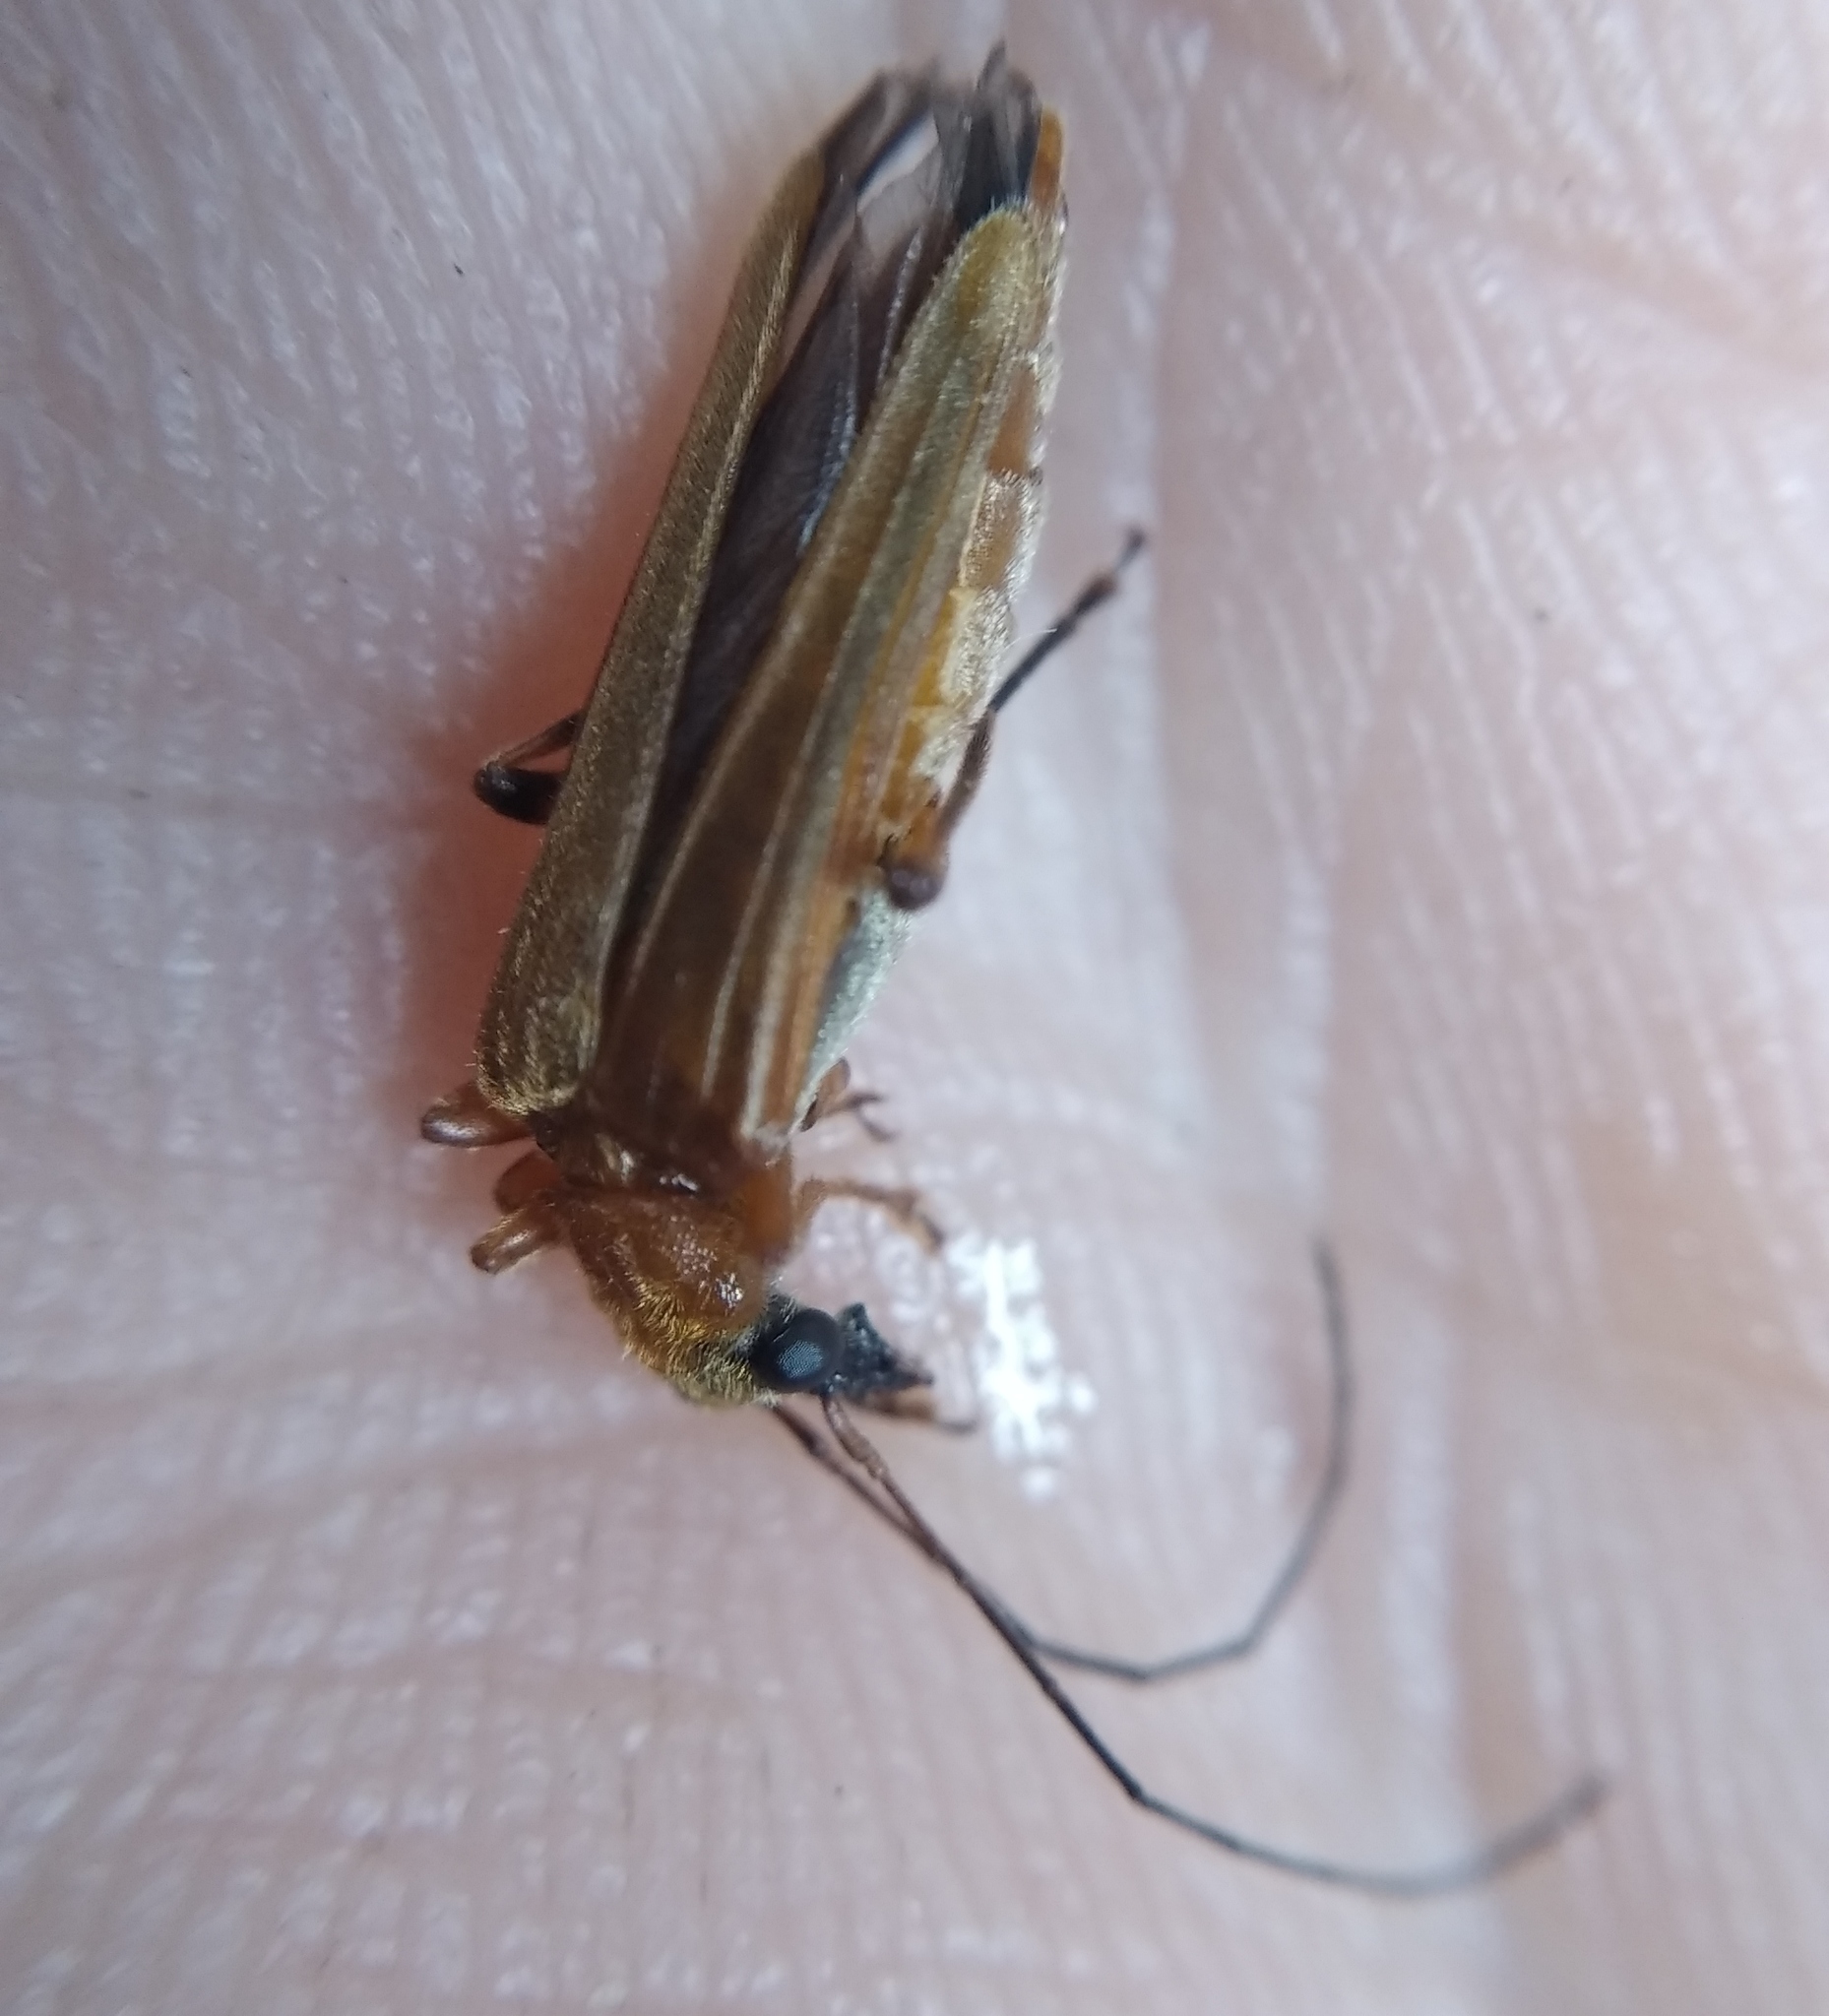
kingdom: Animalia
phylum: Arthropoda
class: Insecta
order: Coleoptera
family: Oedemeridae
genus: Oedemera
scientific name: Oedemera podagrariae
